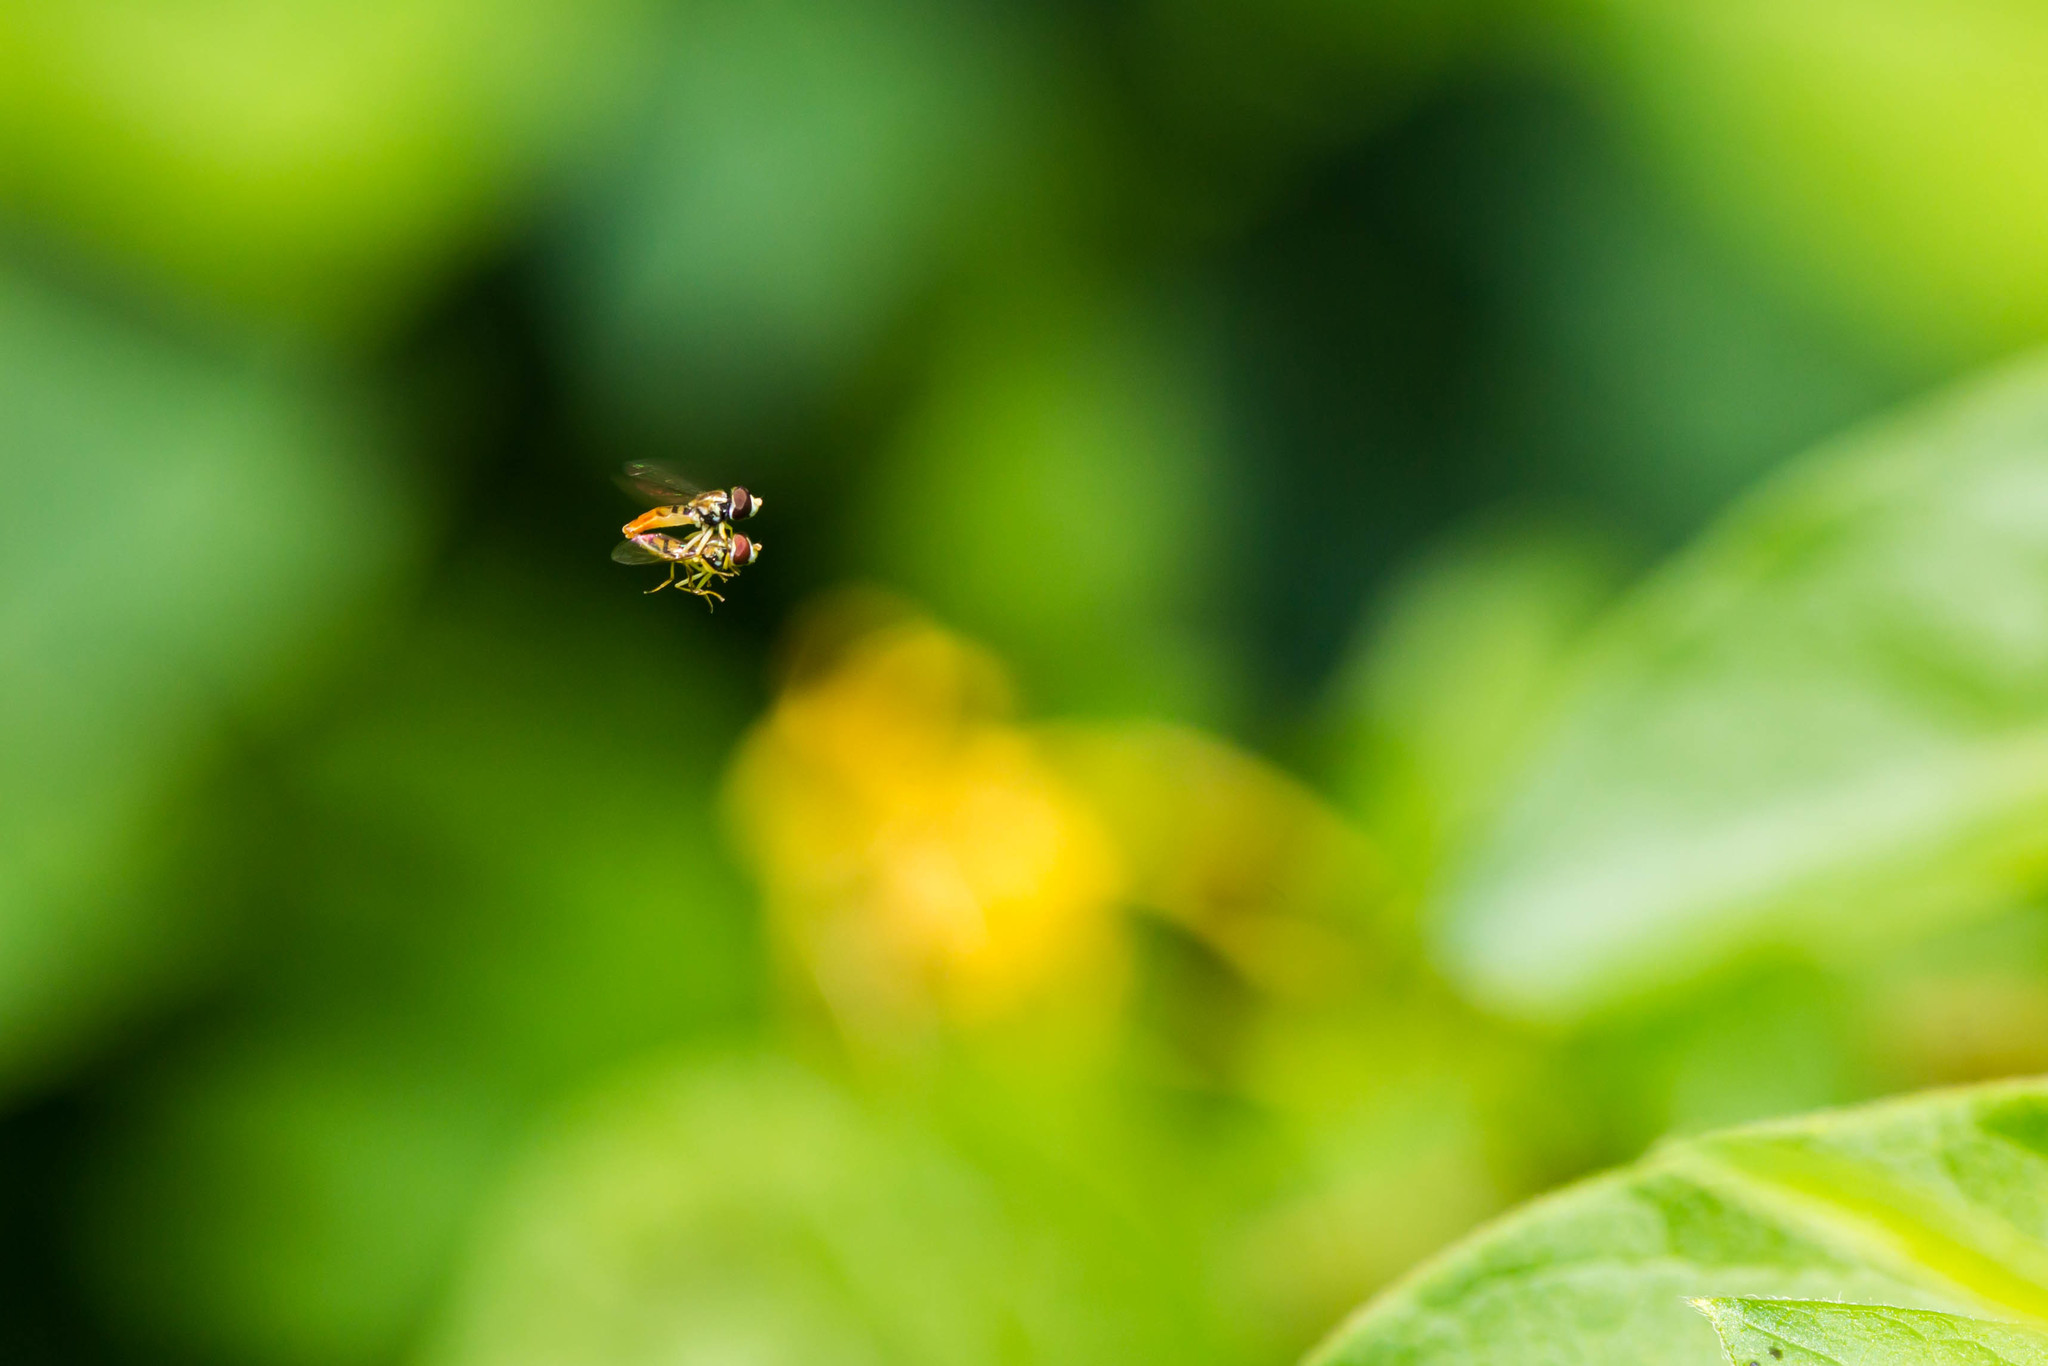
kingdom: Animalia
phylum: Arthropoda
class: Insecta
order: Diptera
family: Syrphidae
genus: Toxomerus
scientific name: Toxomerus marginatus
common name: Syrphid fly
